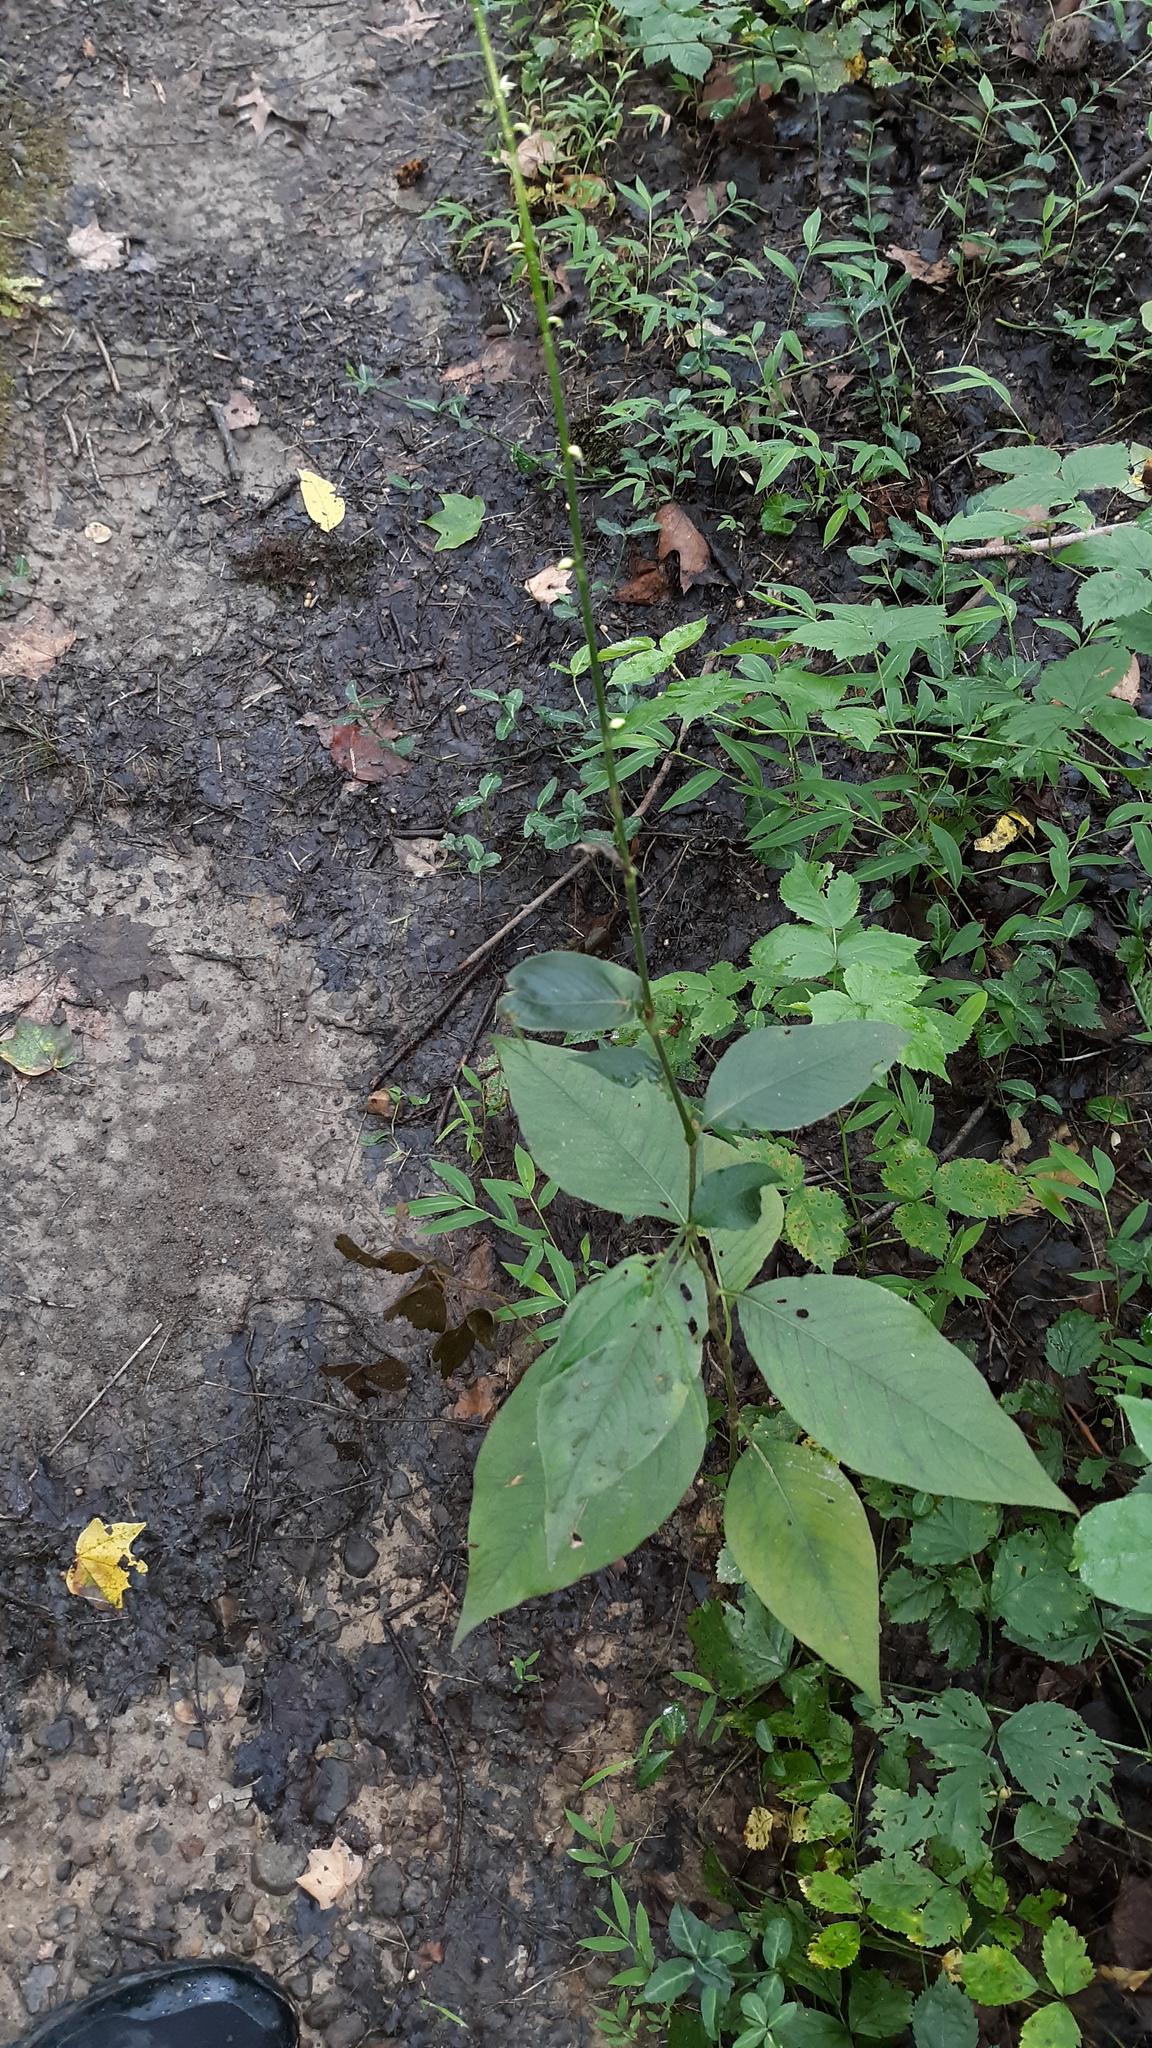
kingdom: Plantae
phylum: Tracheophyta
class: Magnoliopsida
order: Caryophyllales
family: Polygonaceae
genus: Persicaria
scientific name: Persicaria virginiana
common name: Jumpseed
